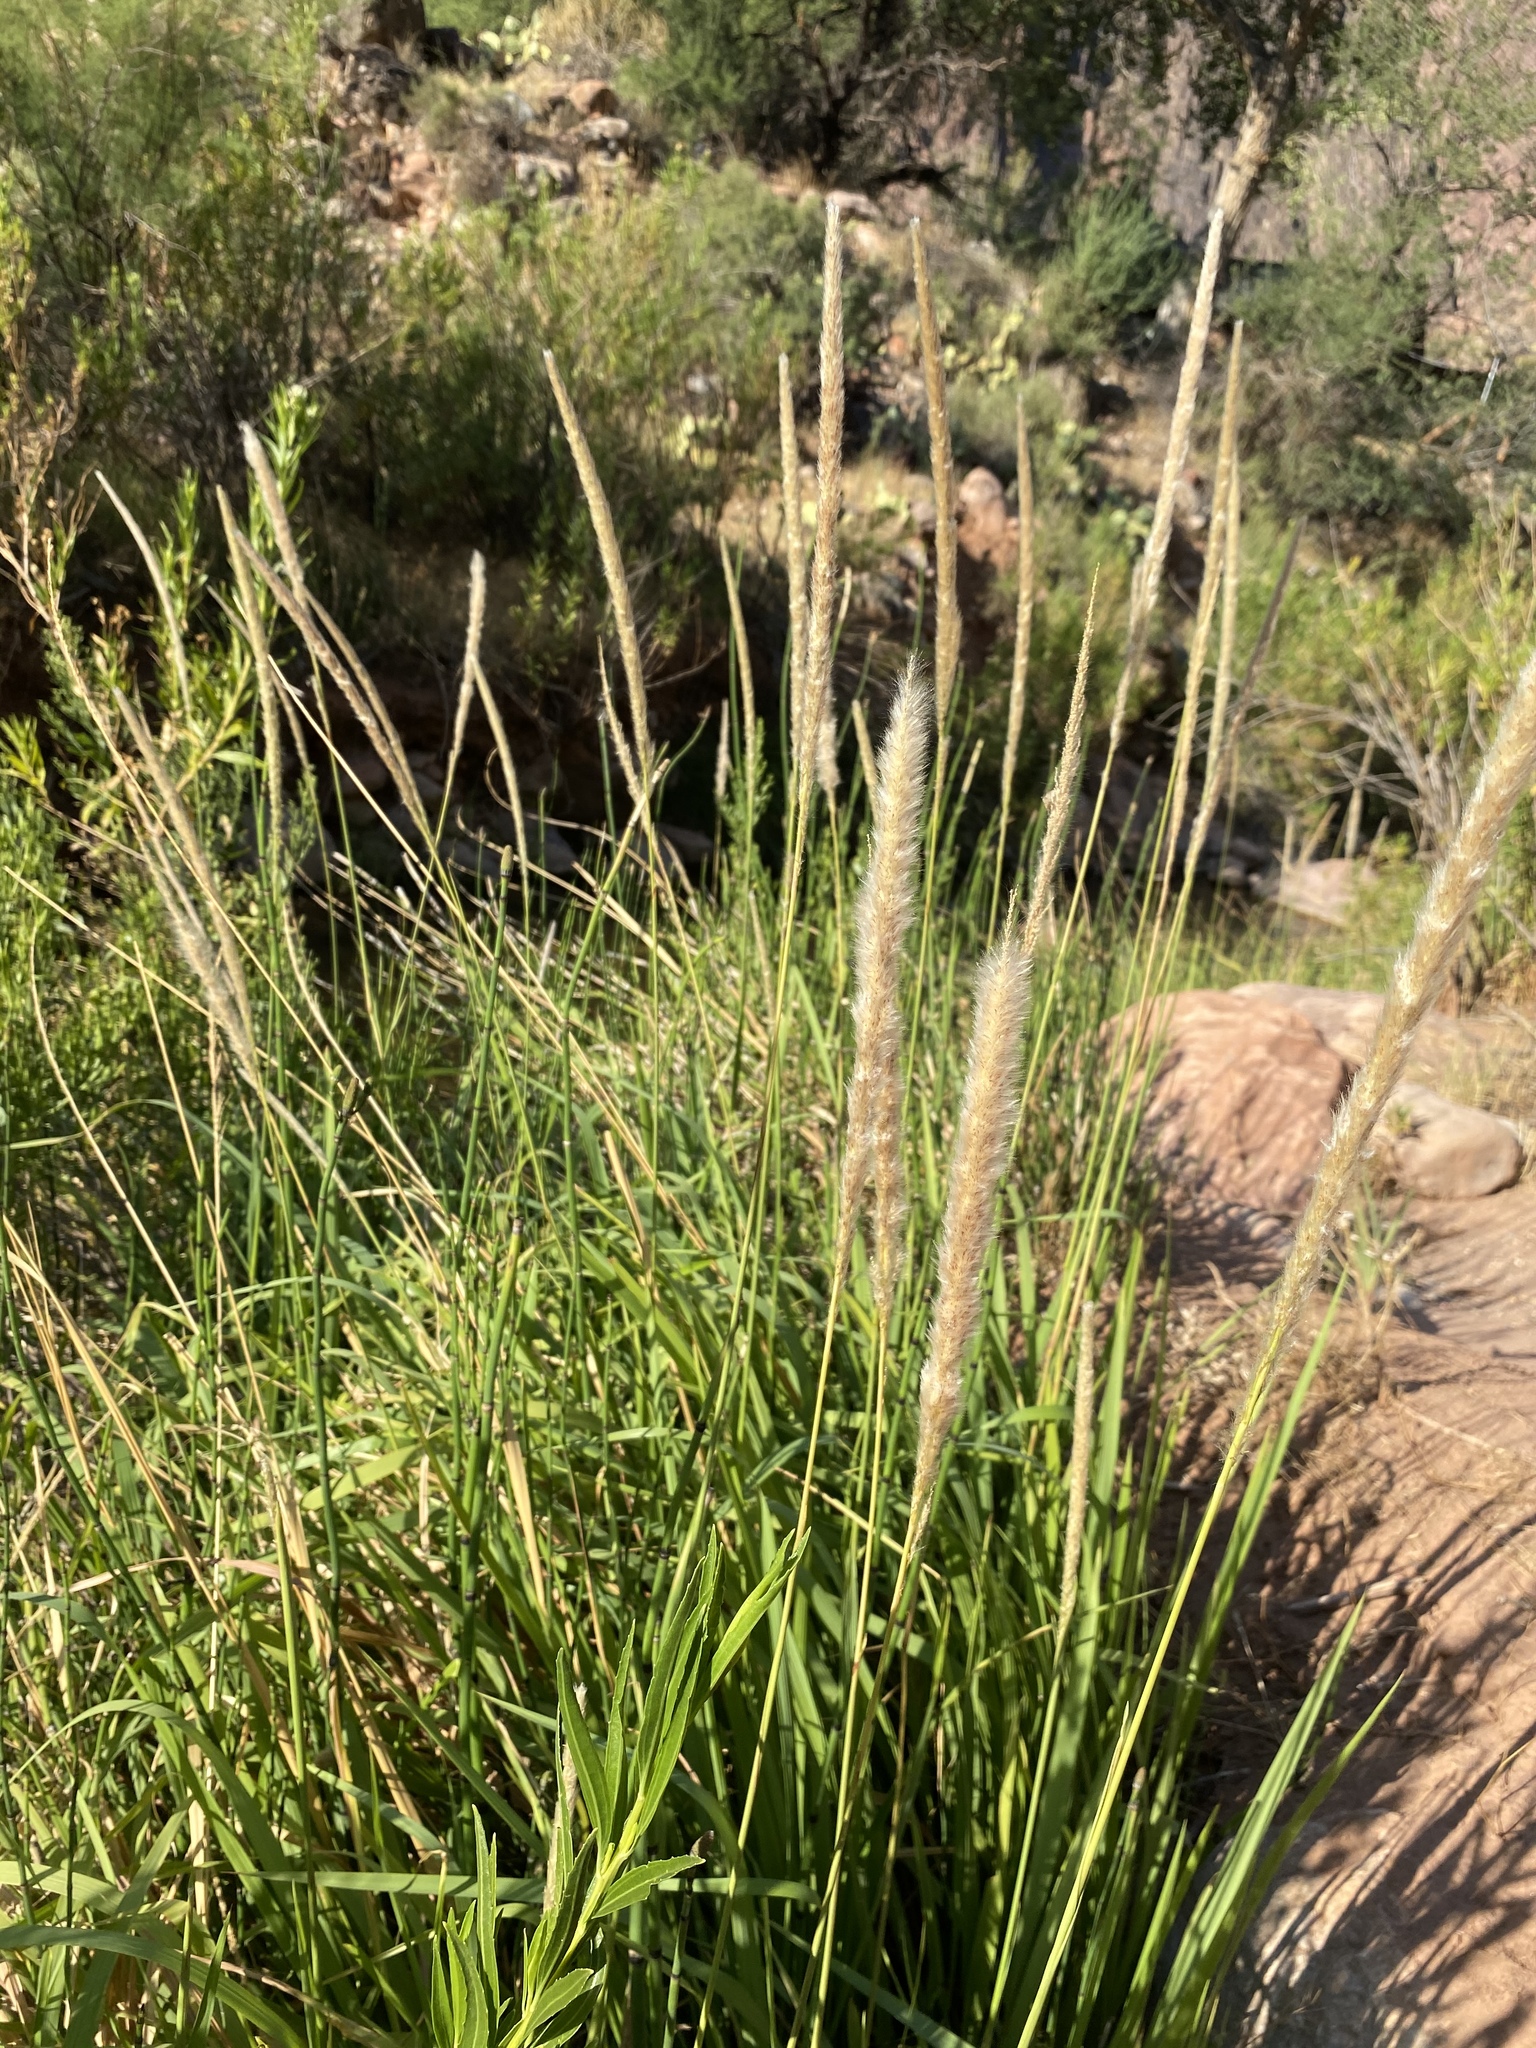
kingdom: Plantae
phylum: Tracheophyta
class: Liliopsida
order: Poales
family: Poaceae
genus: Imperata
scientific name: Imperata brevifolia
